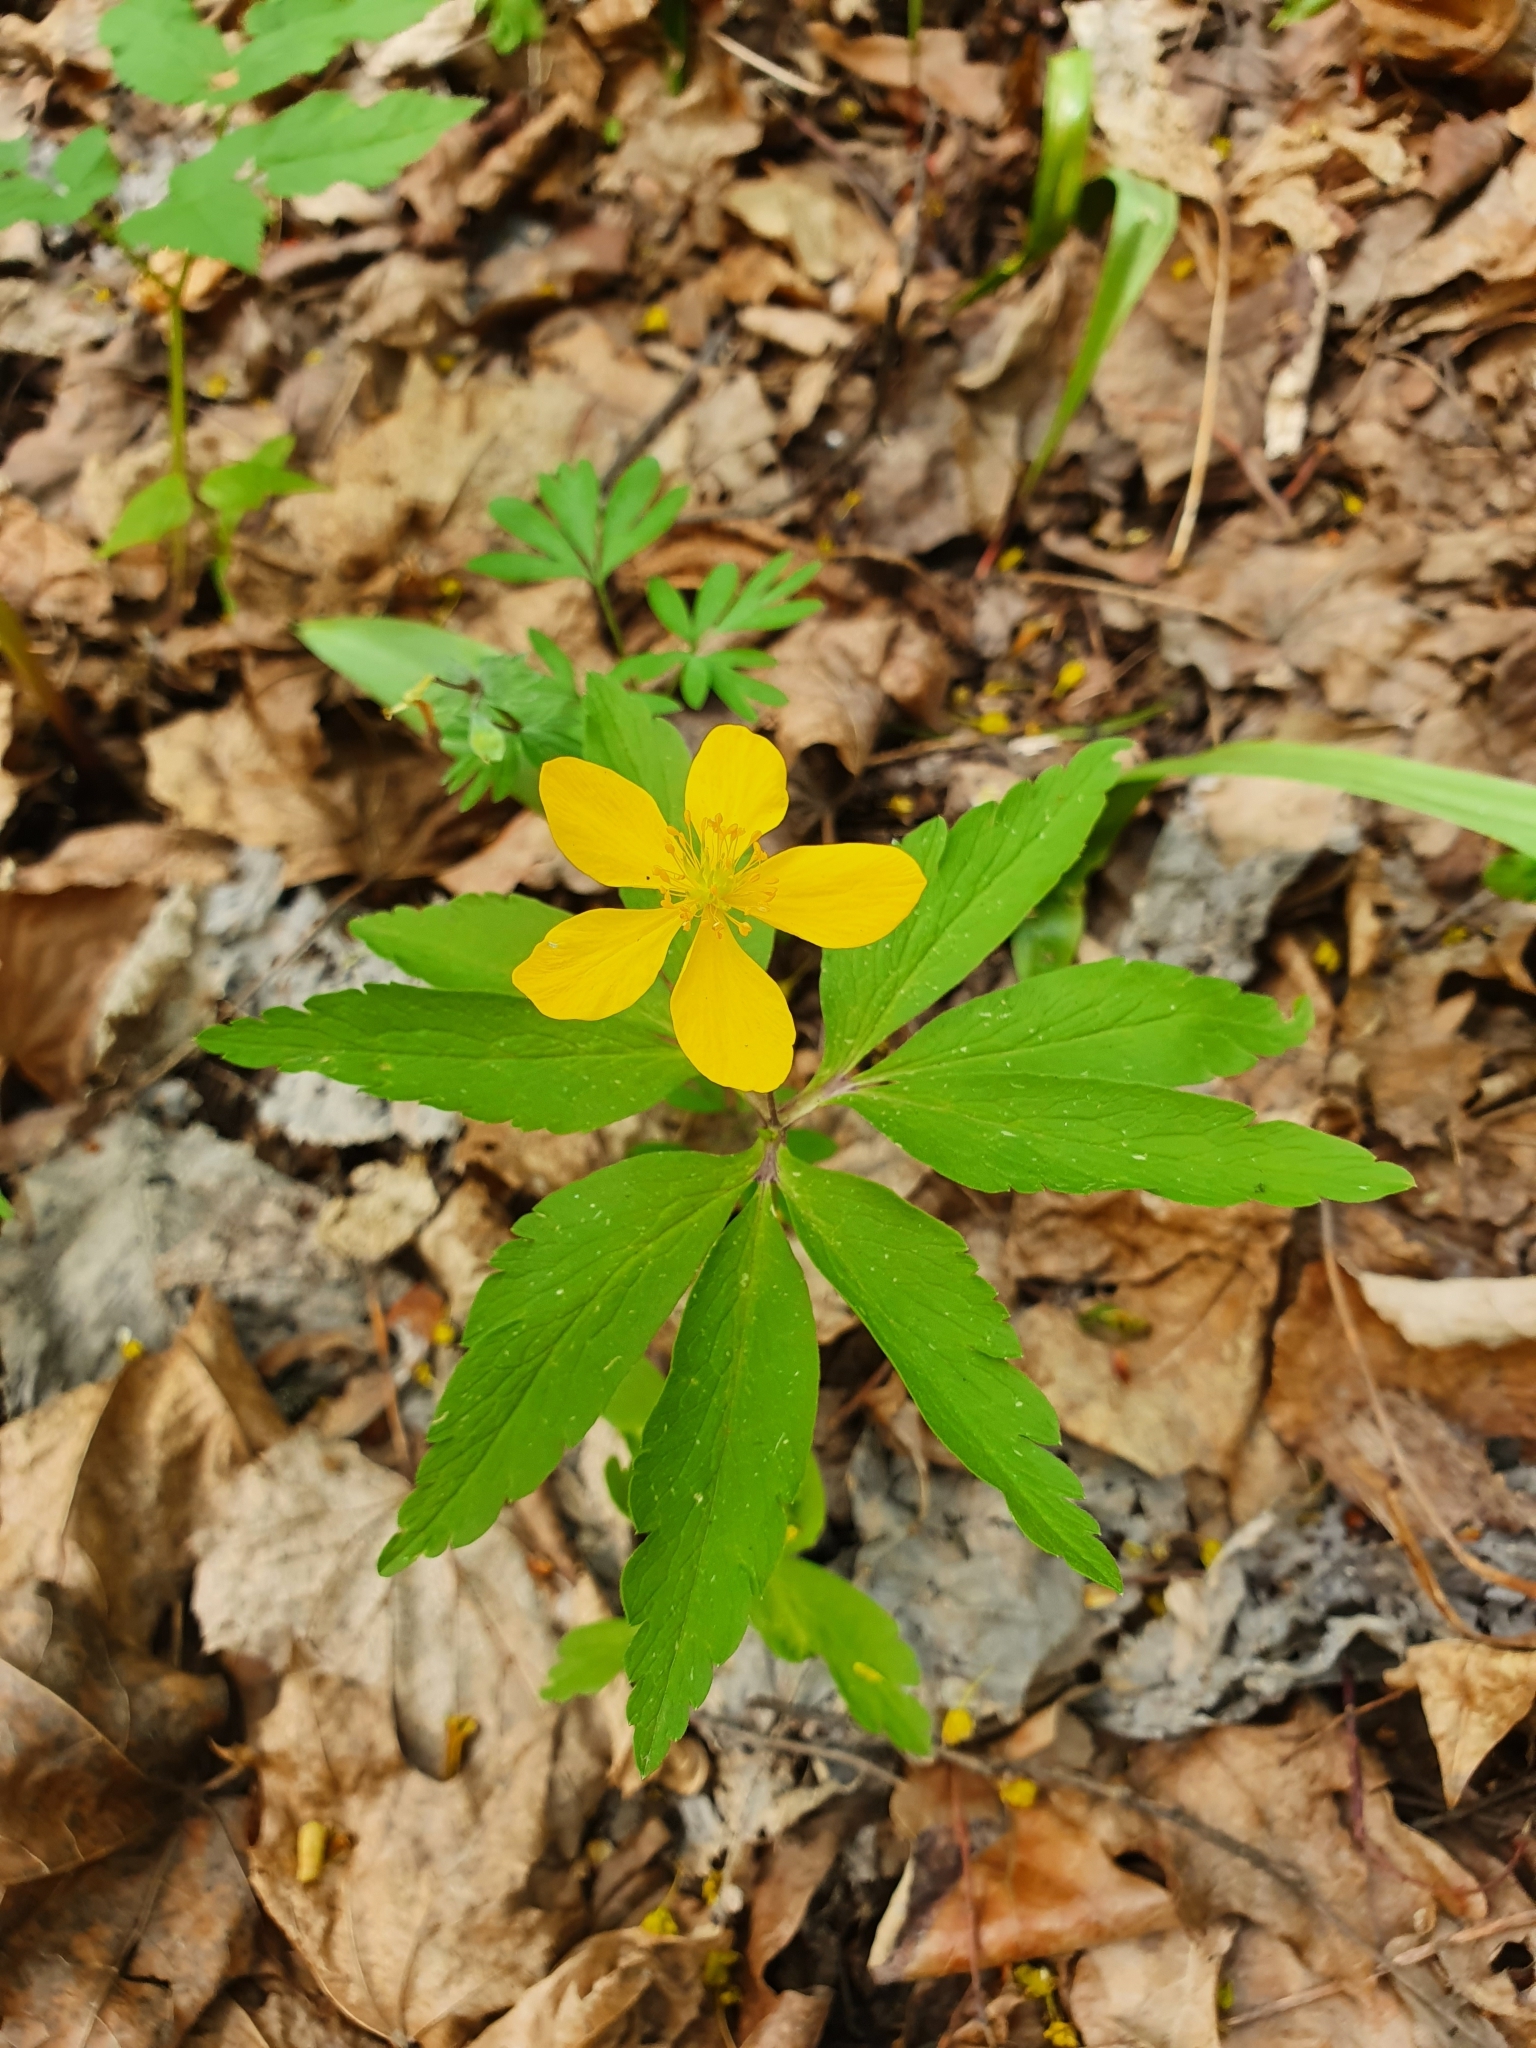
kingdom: Plantae
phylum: Tracheophyta
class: Magnoliopsida
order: Ranunculales
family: Ranunculaceae
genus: Anemone
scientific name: Anemone ranunculoides
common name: Yellow anemone
